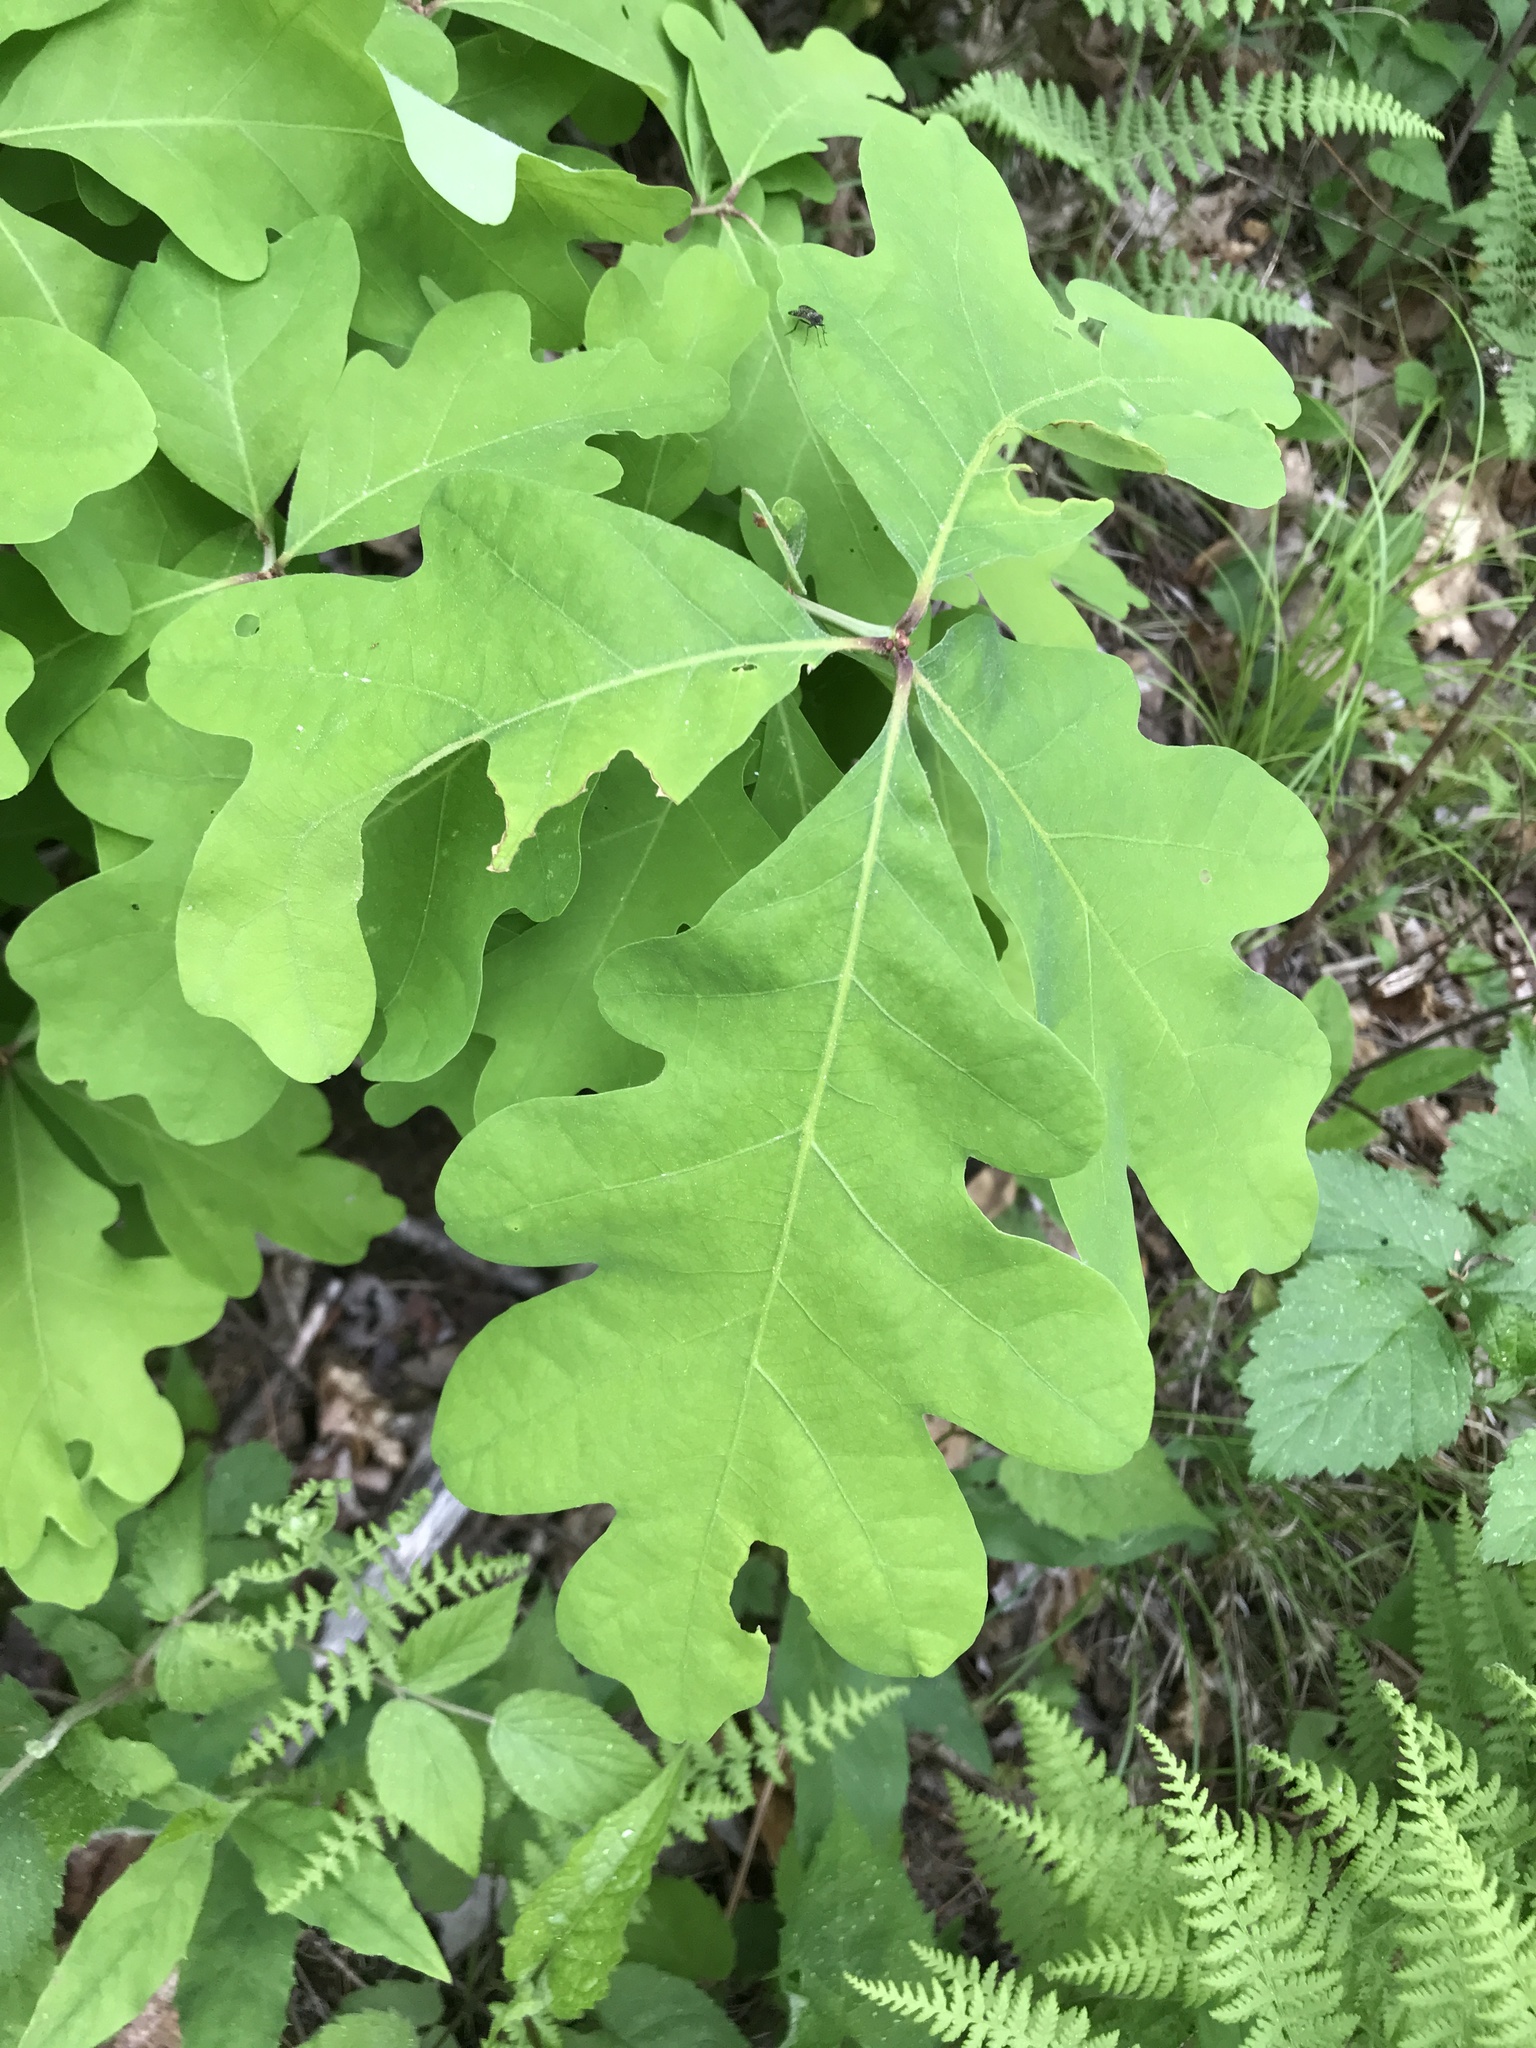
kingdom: Plantae
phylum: Tracheophyta
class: Magnoliopsida
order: Fagales
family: Fagaceae
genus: Quercus
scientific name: Quercus alba
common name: White oak
